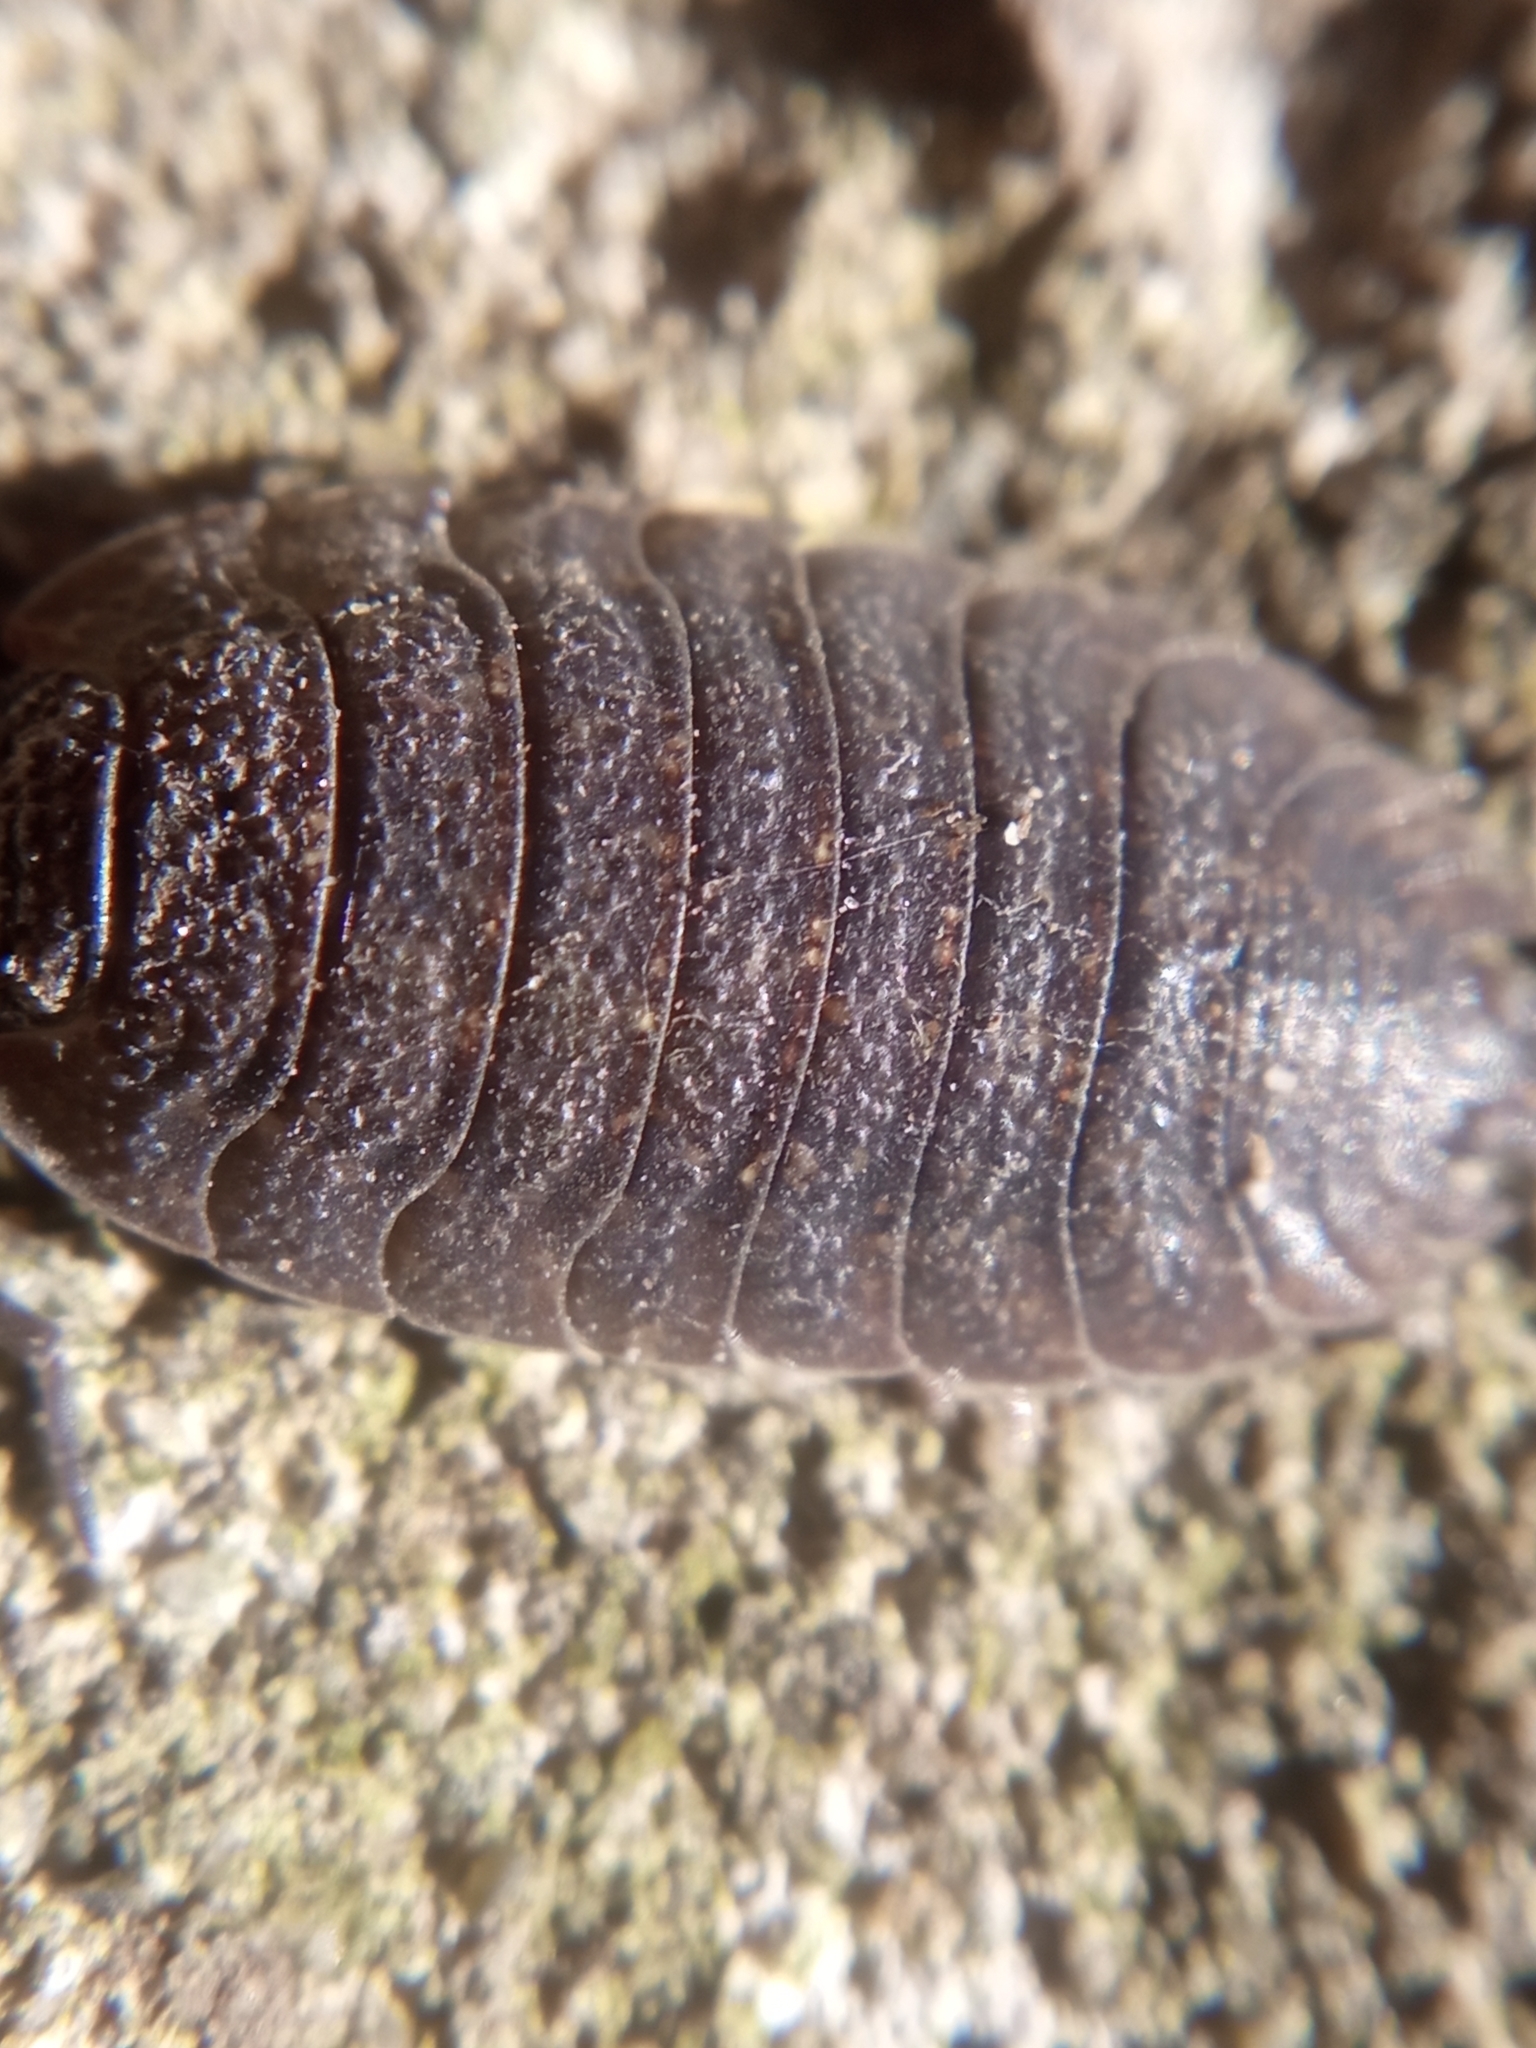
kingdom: Animalia
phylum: Arthropoda
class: Malacostraca
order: Isopoda
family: Porcellionidae
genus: Porcellio
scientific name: Porcellio scaber
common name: Common rough woodlouse
